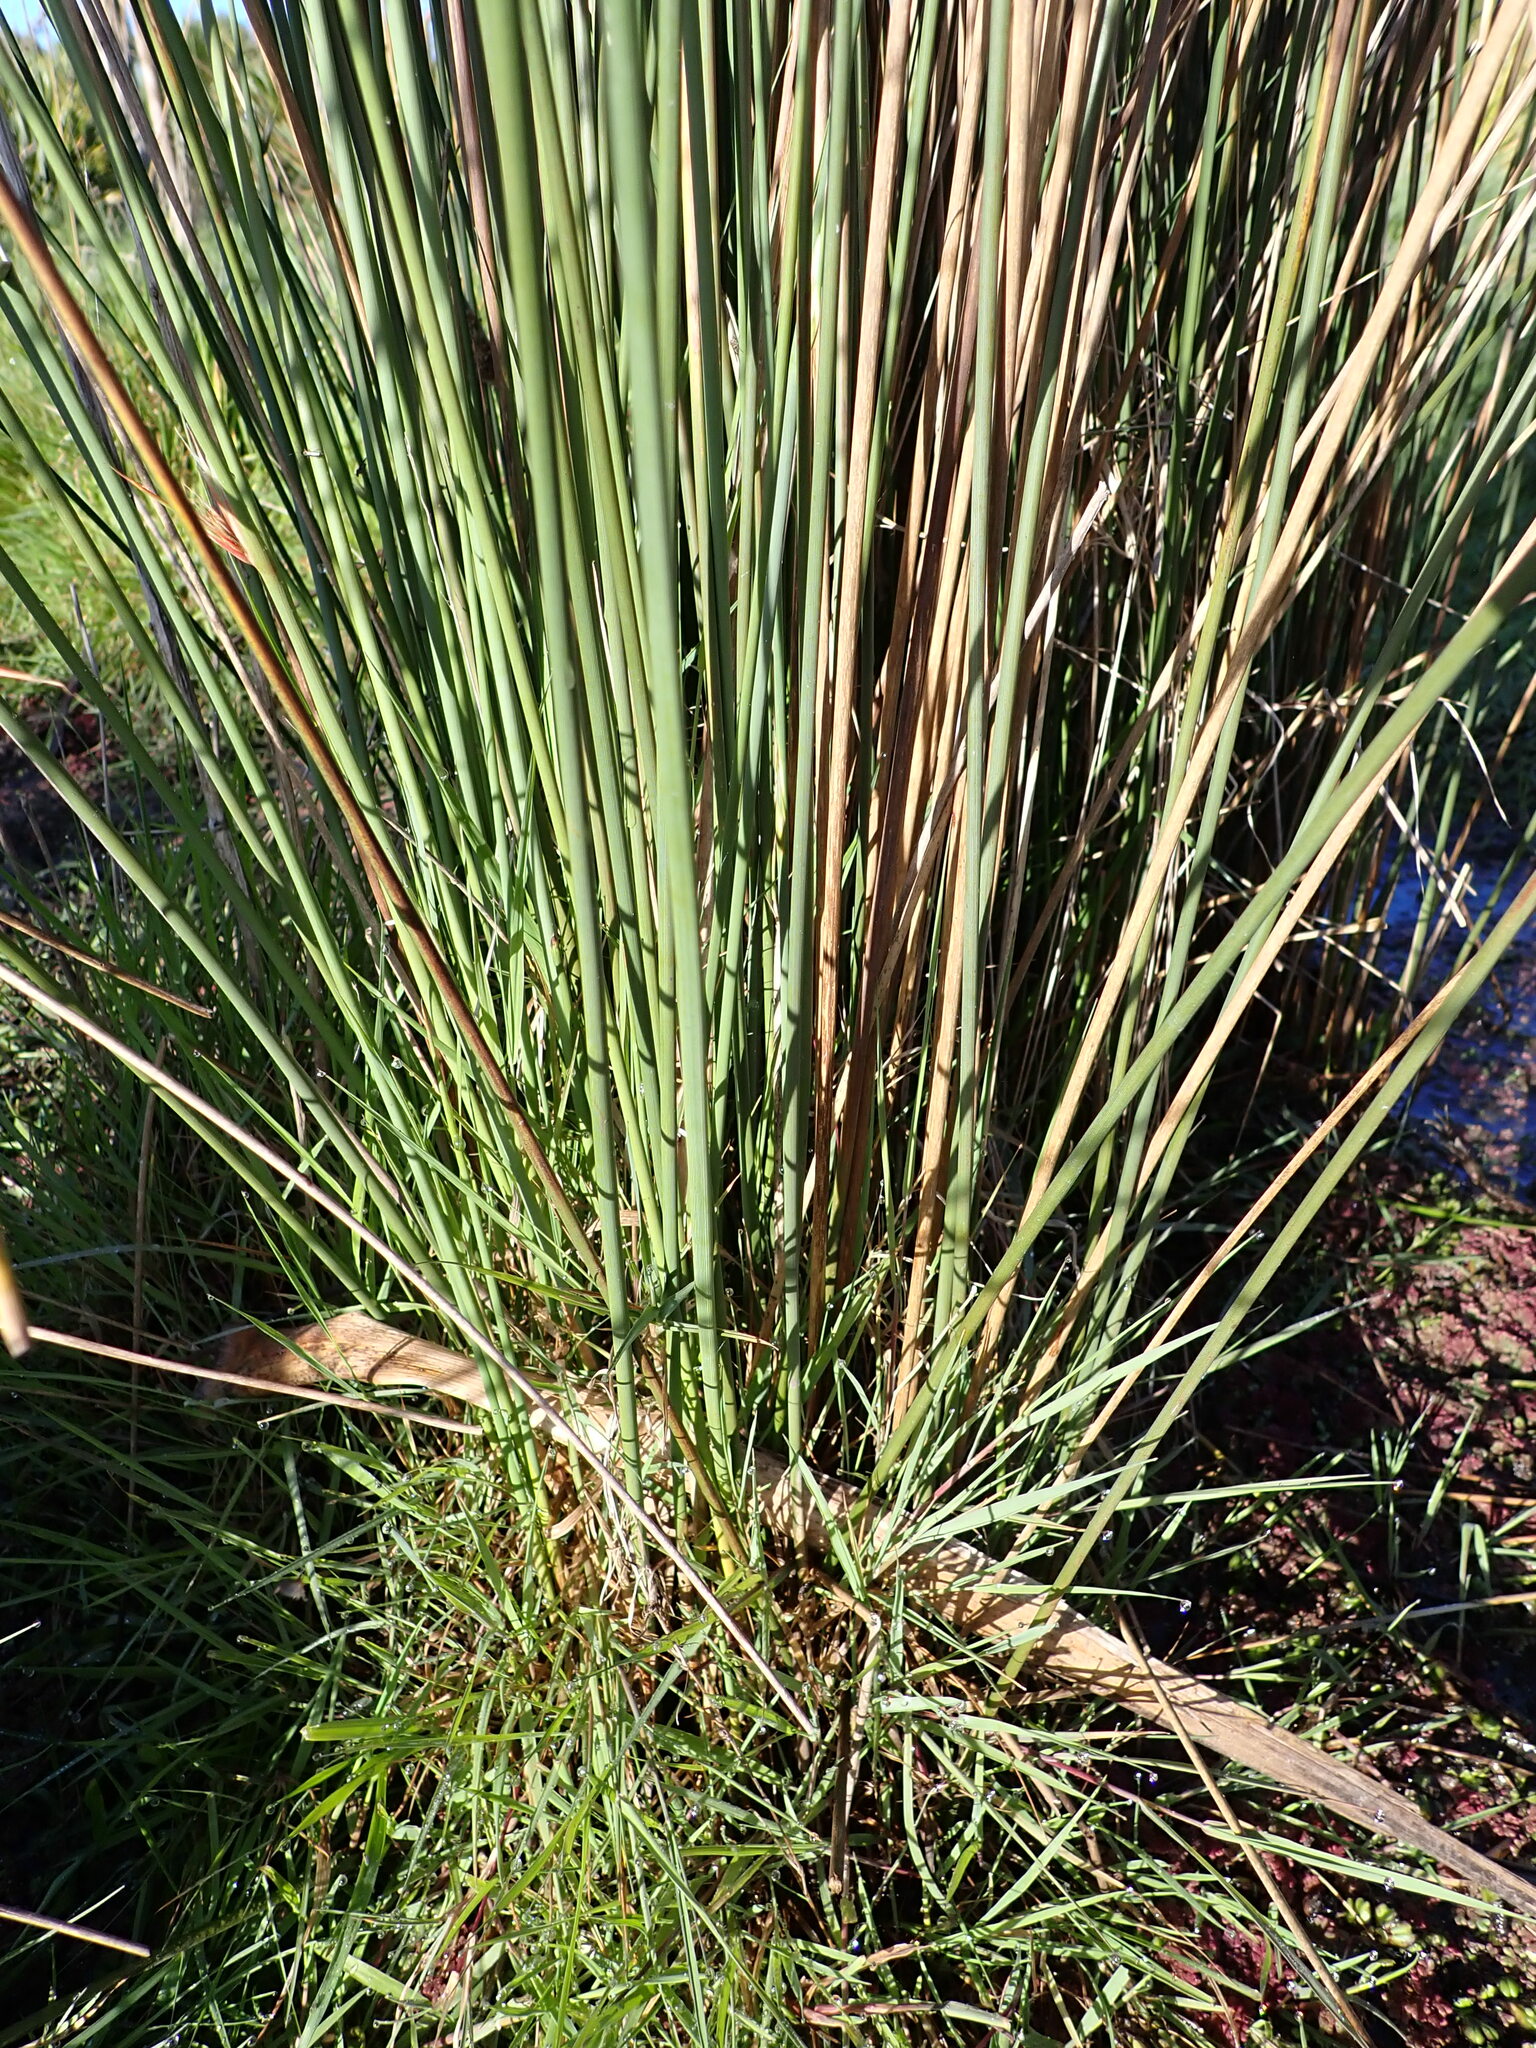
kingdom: Plantae
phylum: Tracheophyta
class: Liliopsida
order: Poales
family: Juncaceae
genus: Juncus
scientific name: Juncus australis
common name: Austral rush
